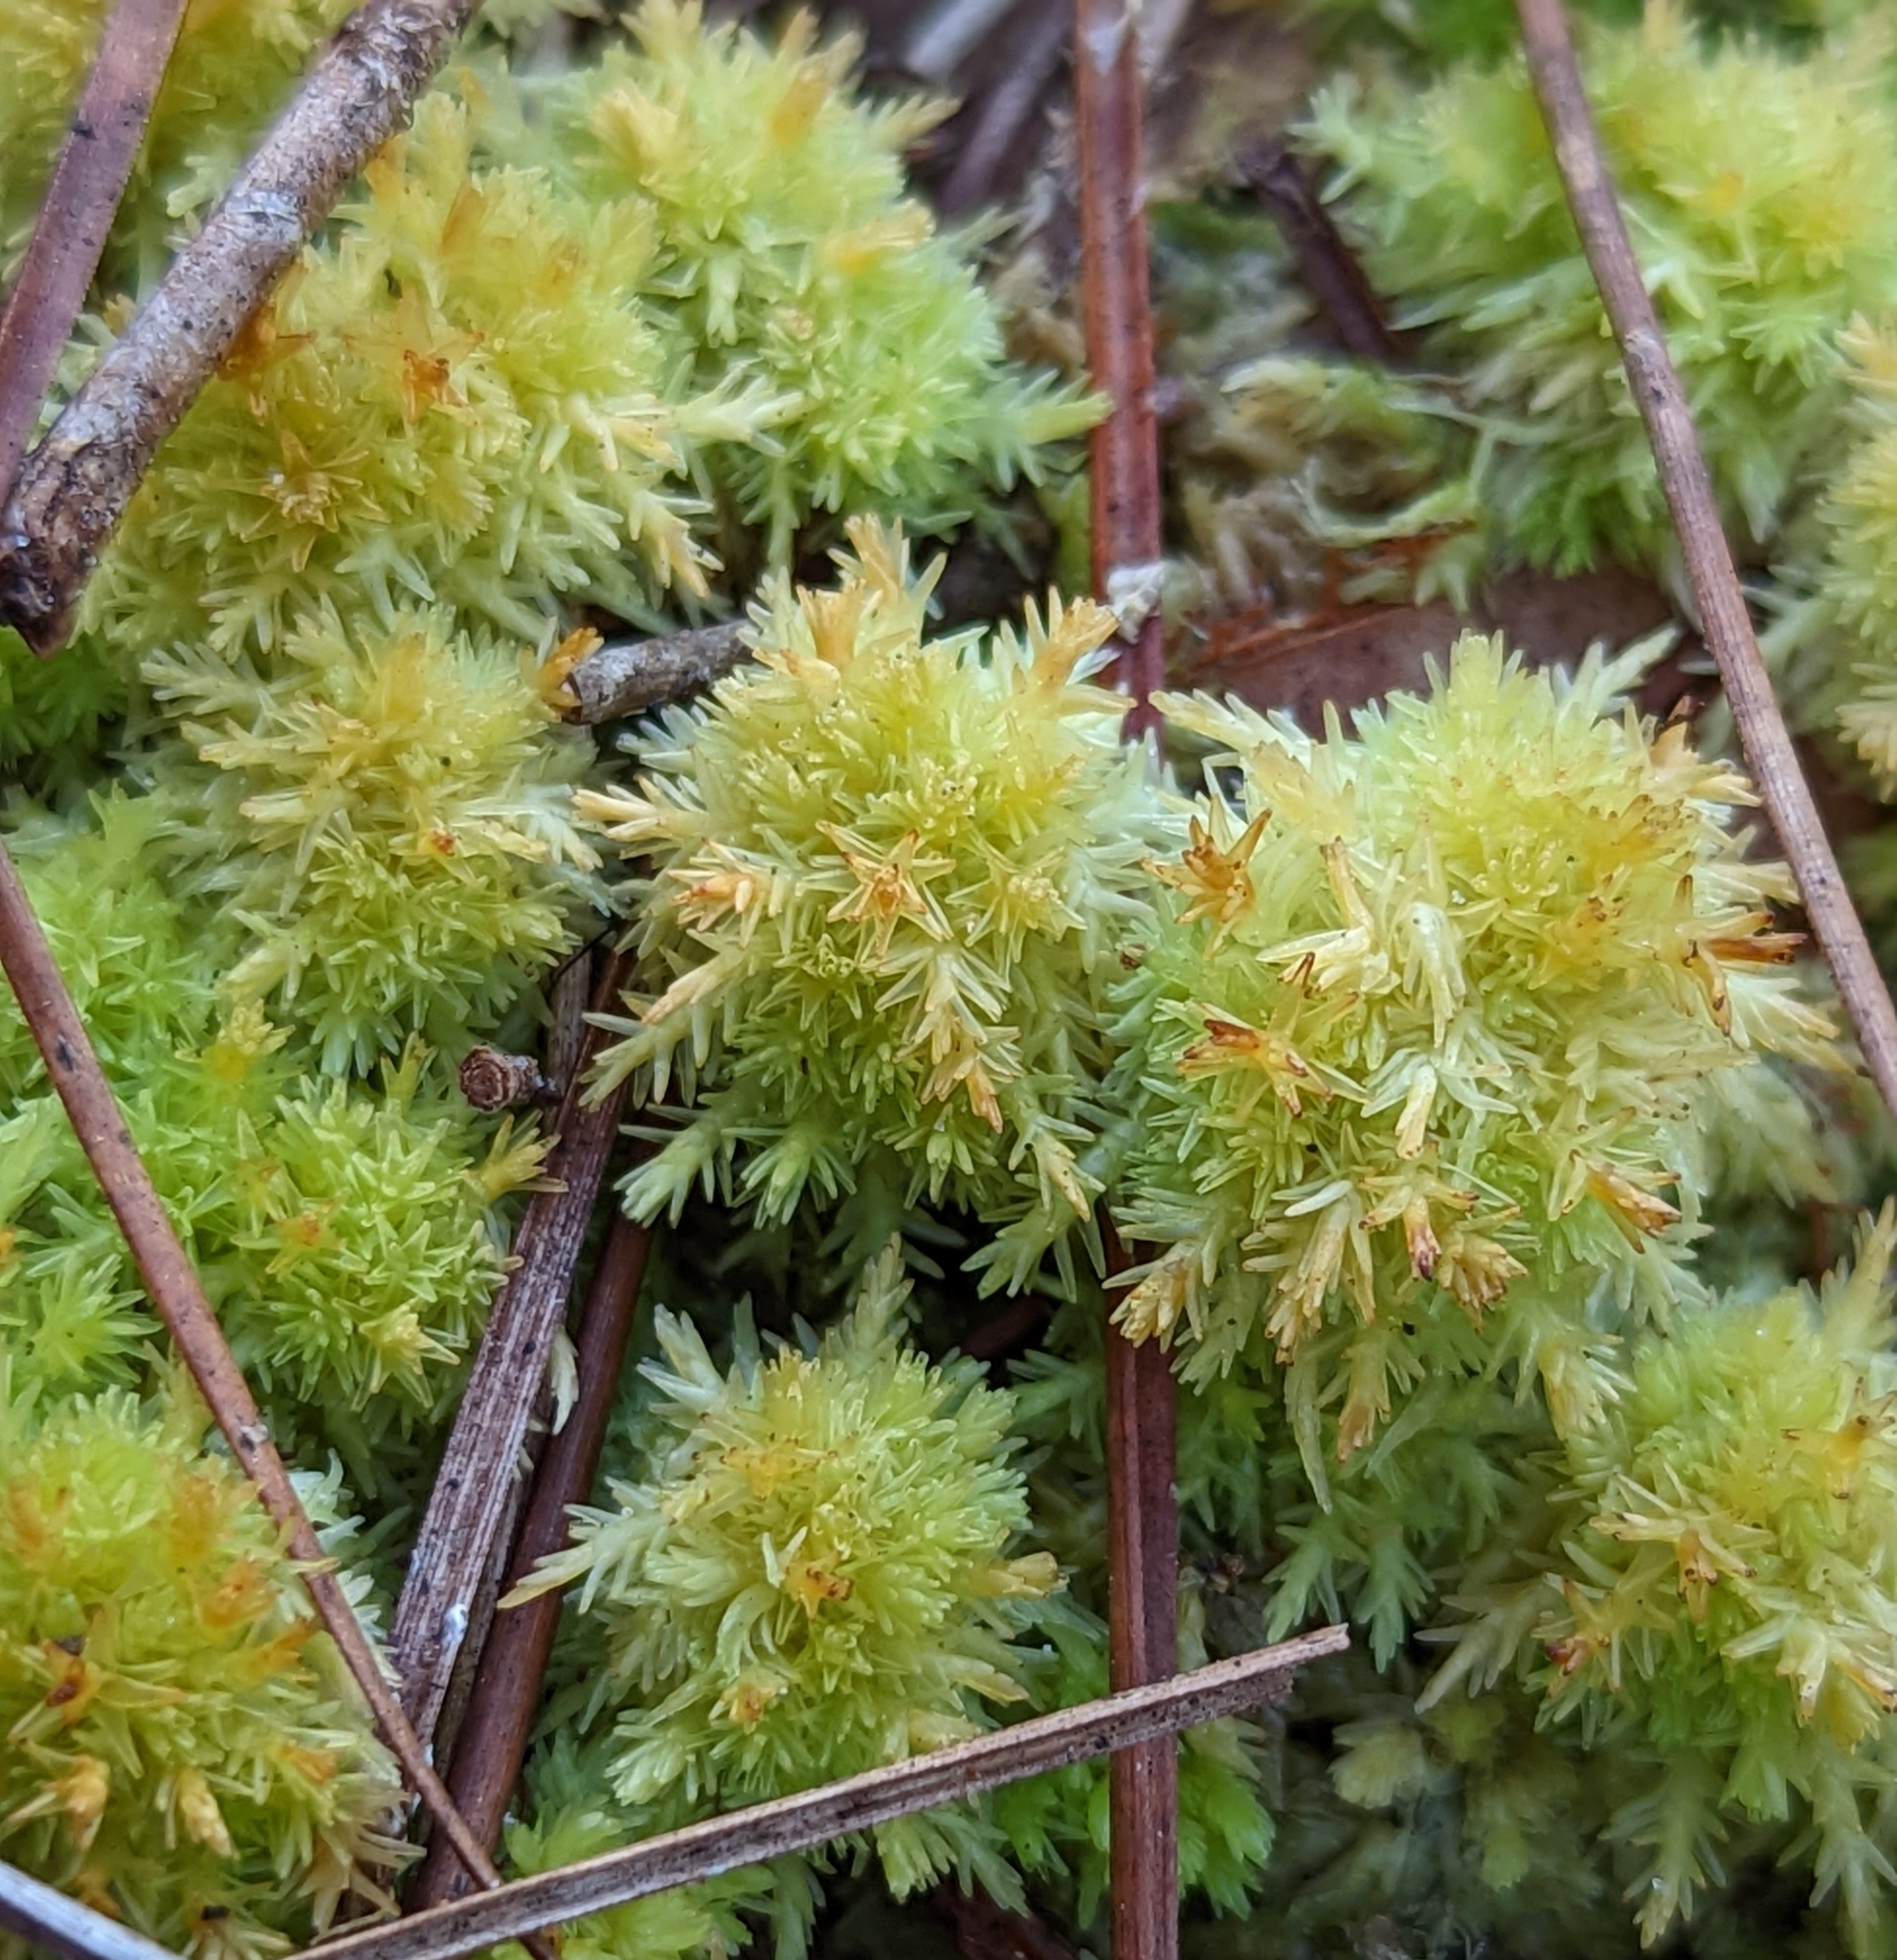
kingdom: Plantae
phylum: Bryophyta
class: Sphagnopsida
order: Sphagnales
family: Sphagnaceae
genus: Sphagnum
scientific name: Sphagnum strictum
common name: Pale bog-moss
